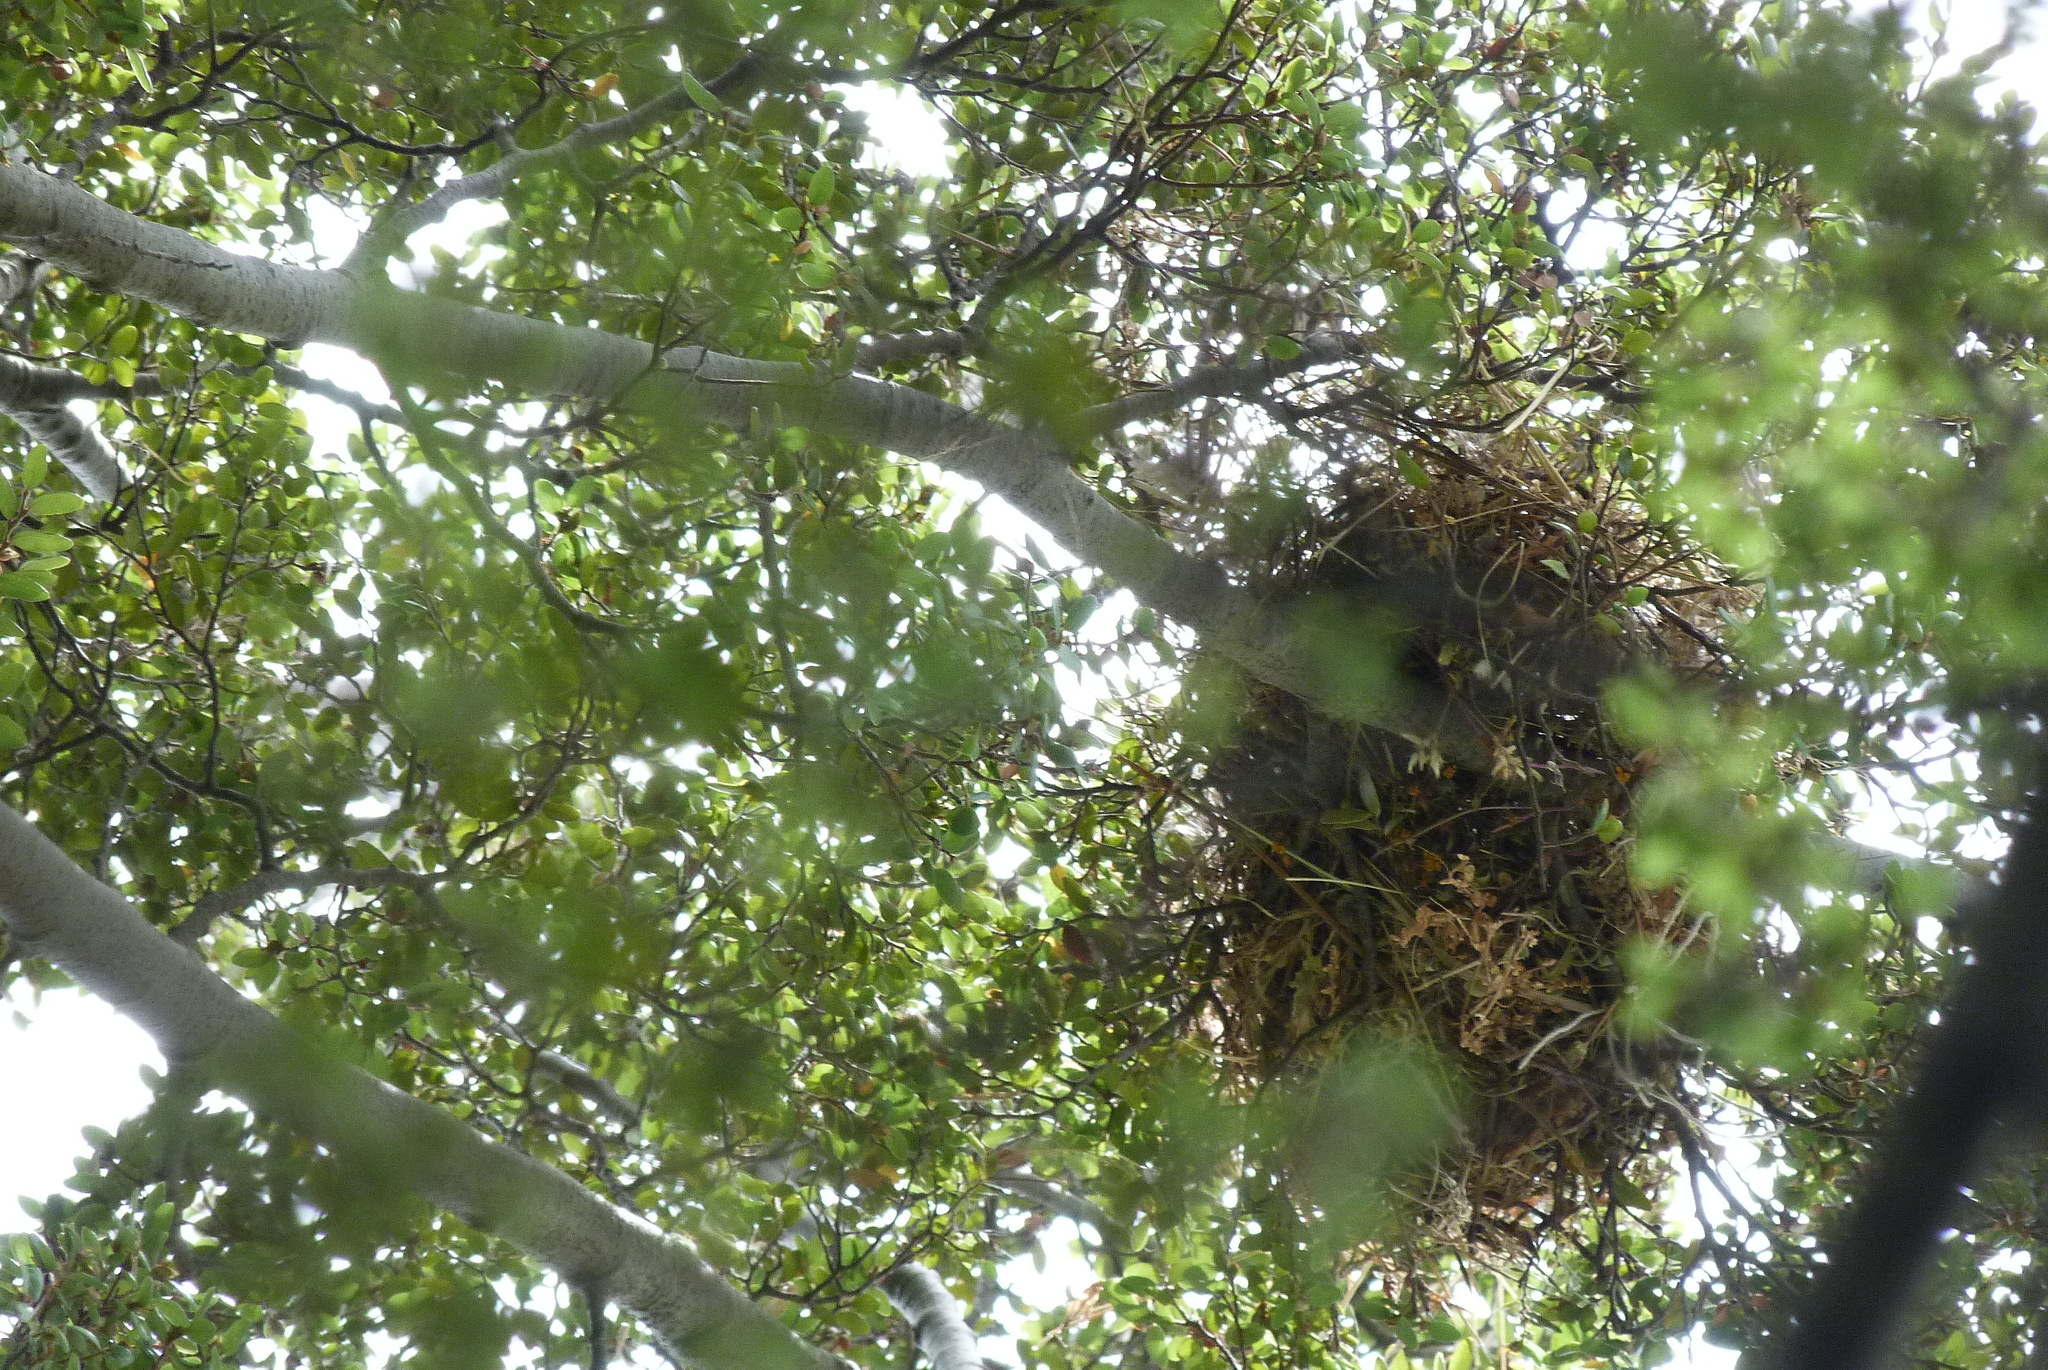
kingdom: Animalia
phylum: Chordata
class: Aves
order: Passeriformes
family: Passeridae
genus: Passer
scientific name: Passer domesticus
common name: House sparrow
